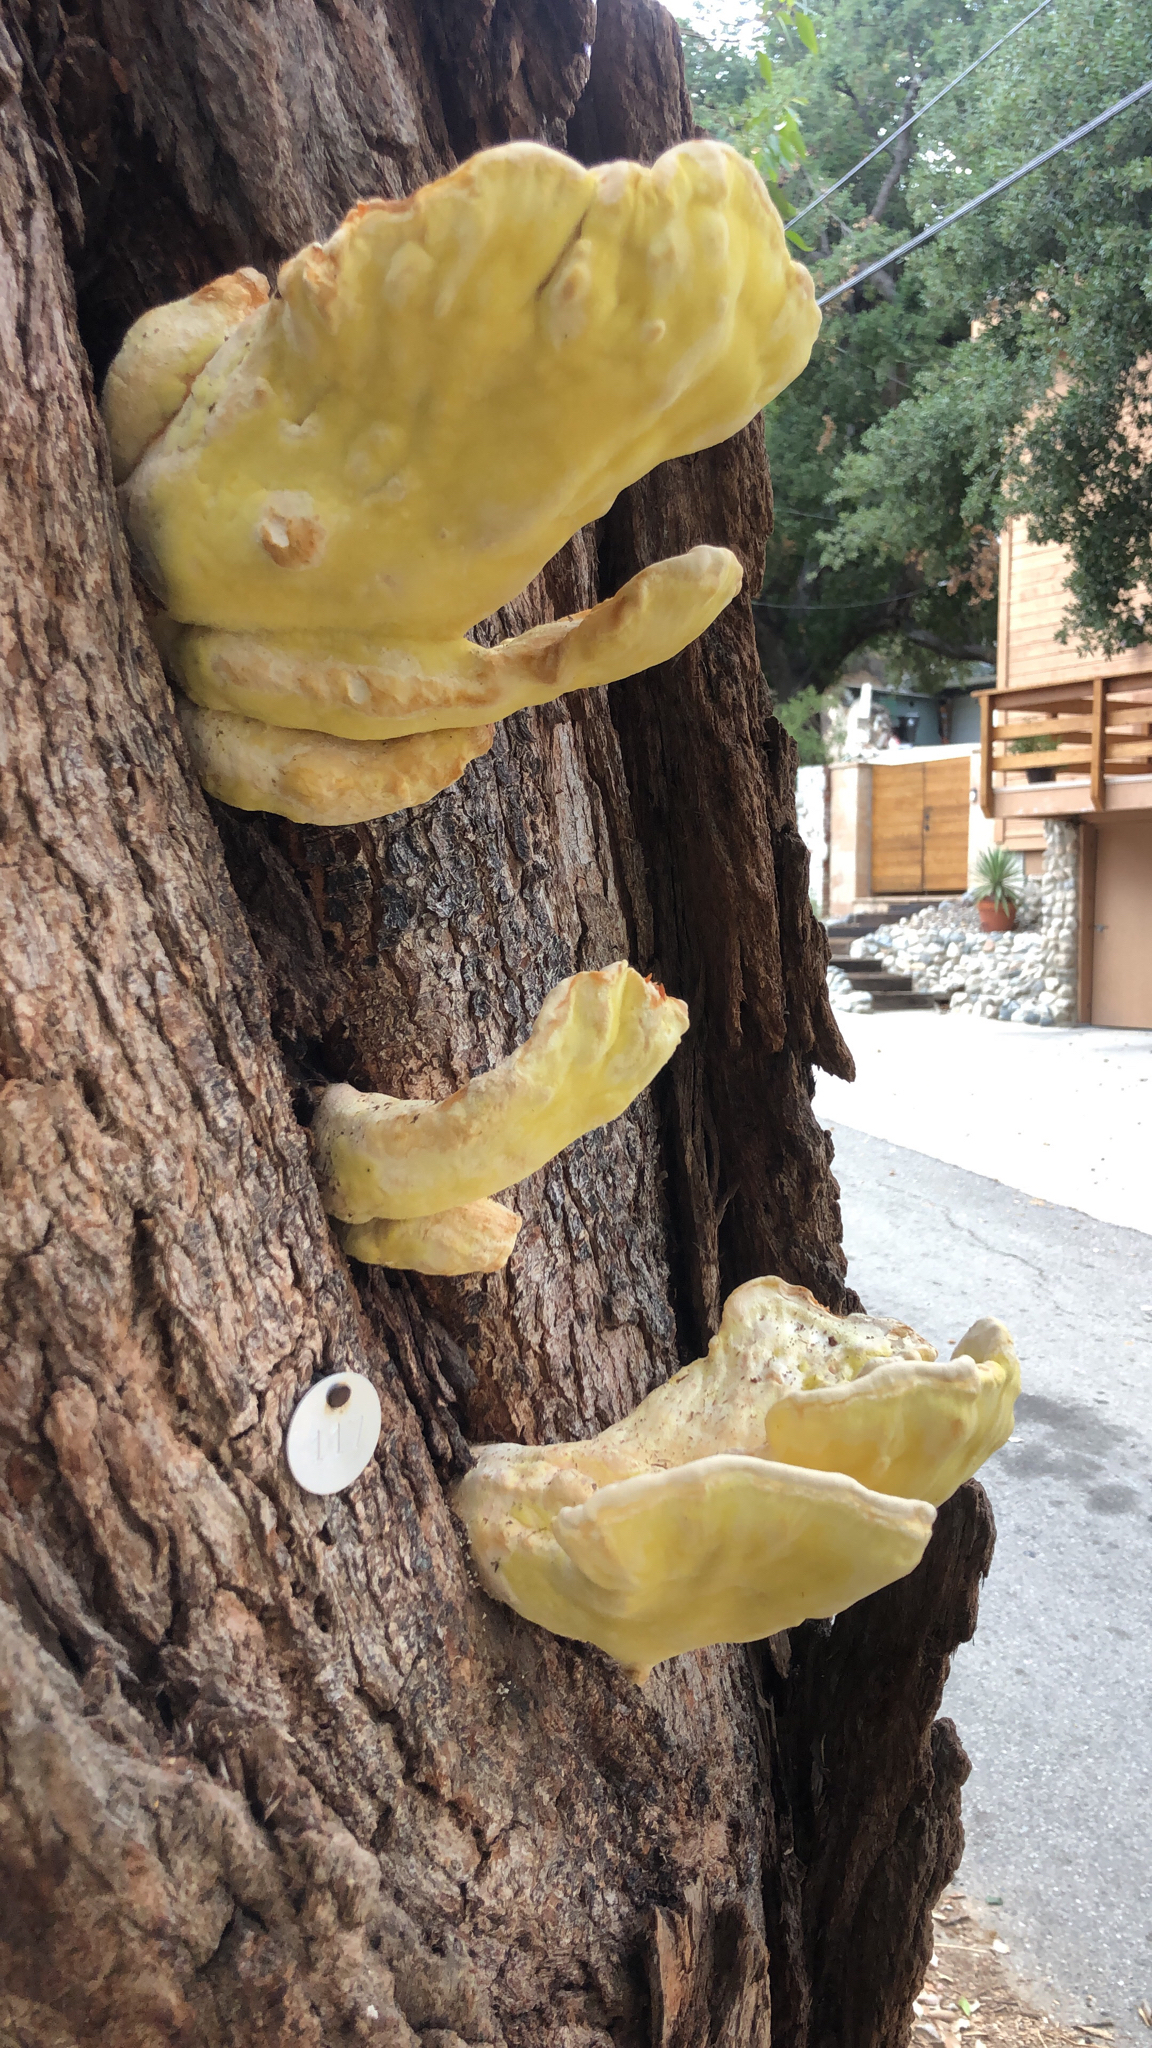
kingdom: Fungi
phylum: Basidiomycota
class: Agaricomycetes
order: Polyporales
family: Laetiporaceae
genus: Laetiporus
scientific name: Laetiporus gilbertsonii
